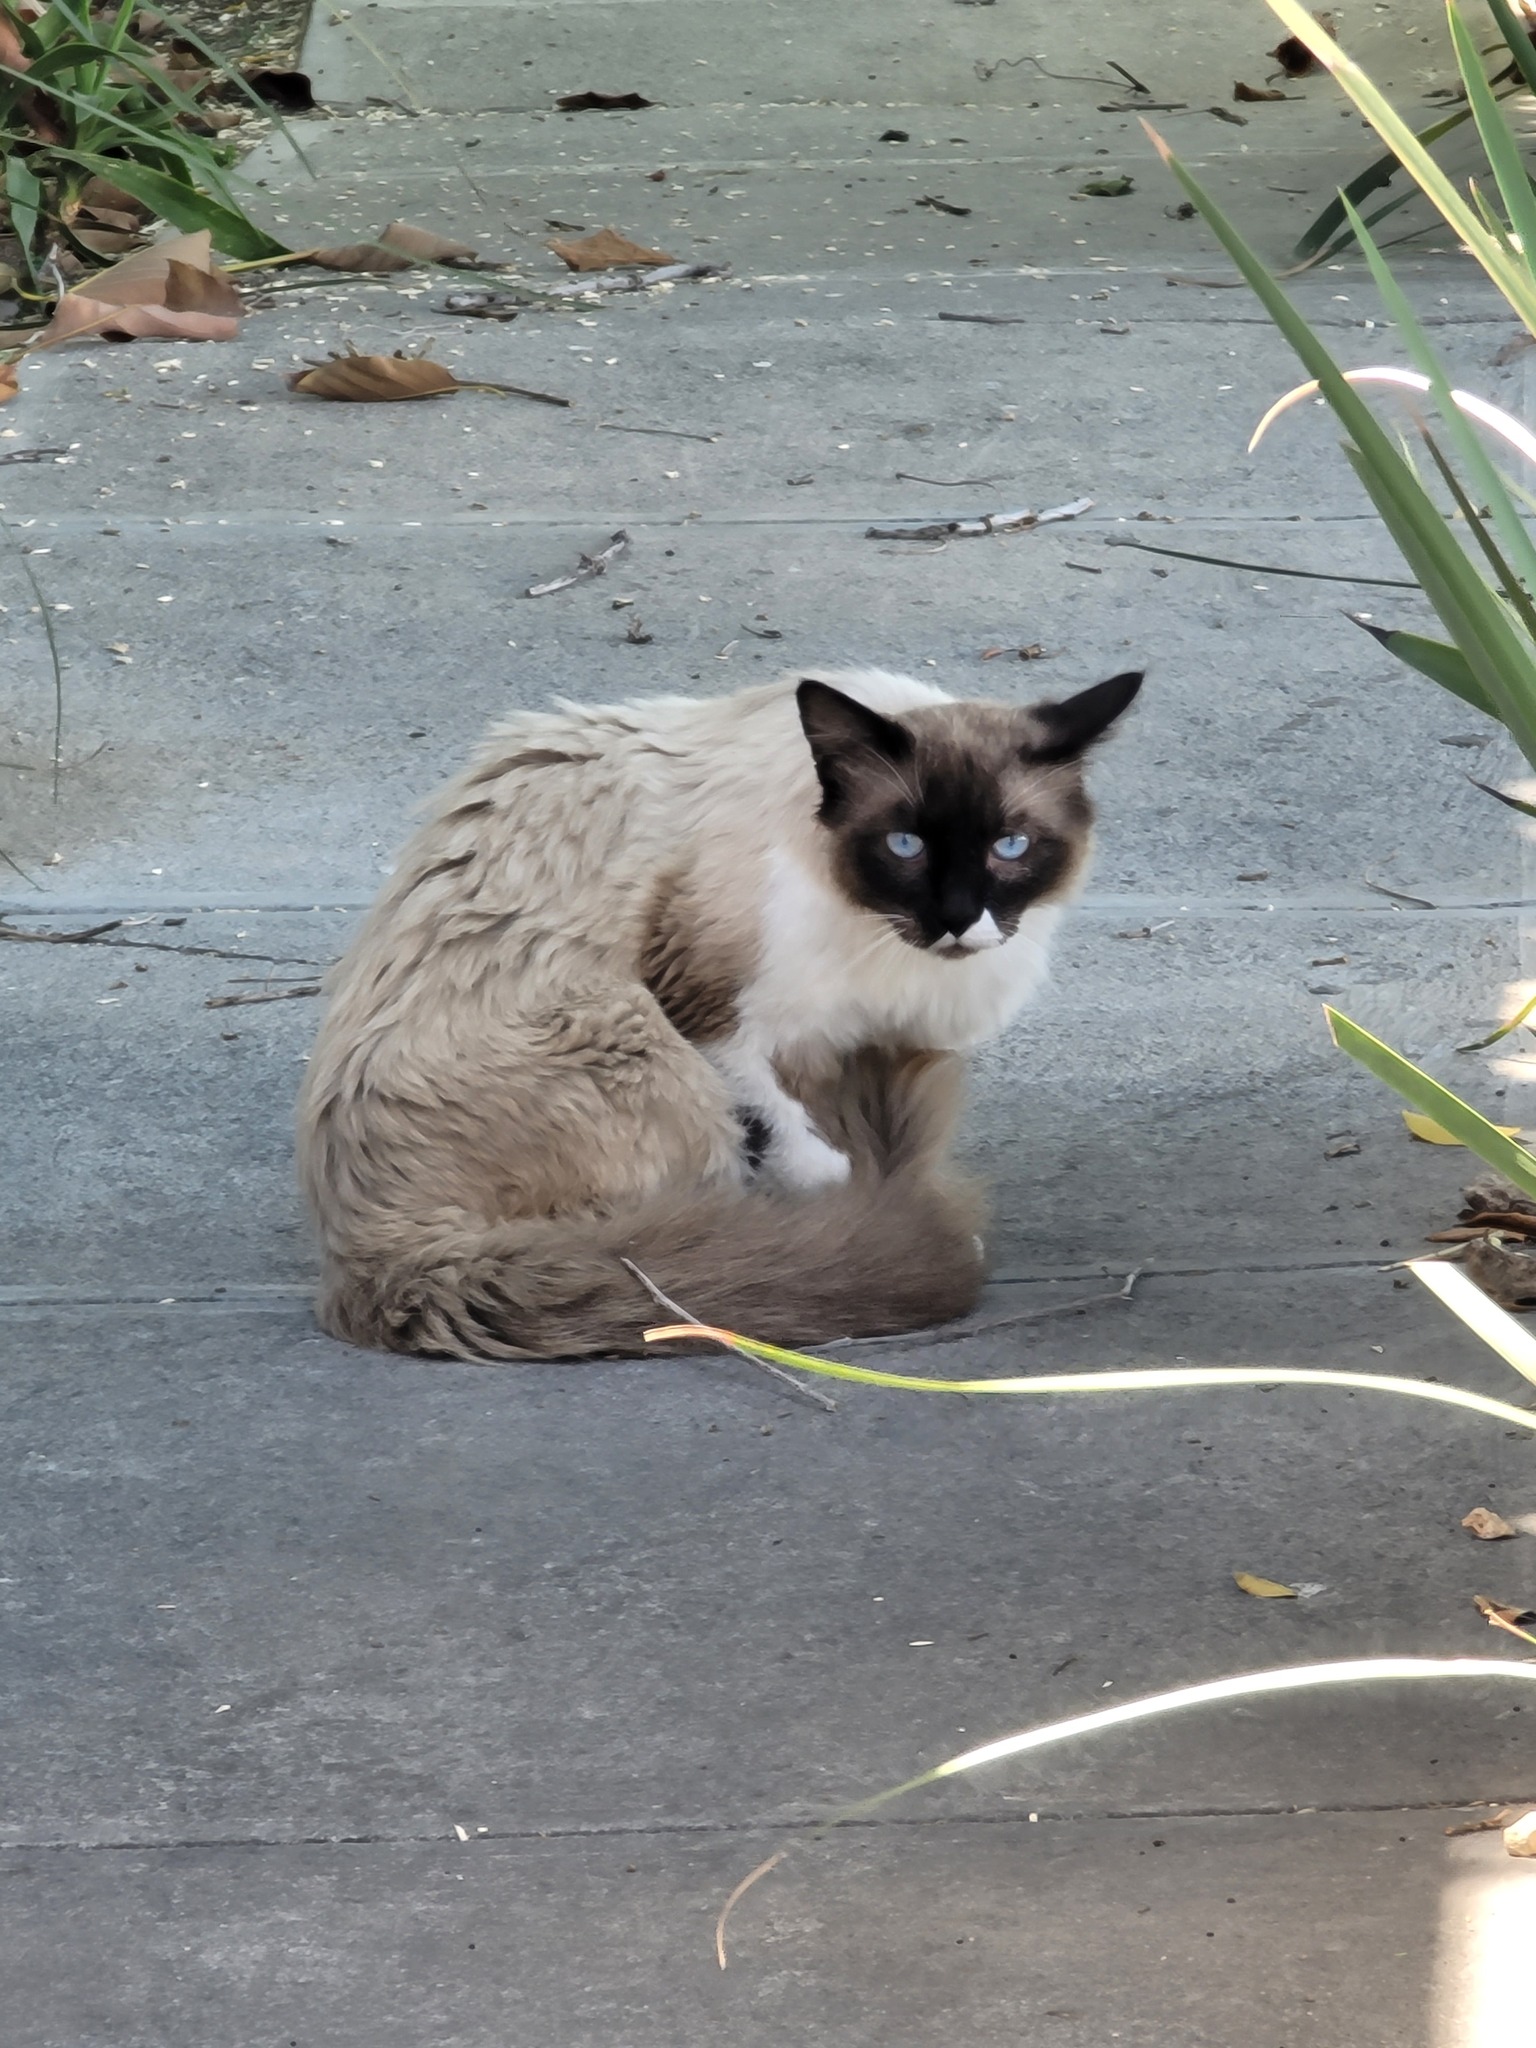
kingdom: Animalia
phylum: Chordata
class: Mammalia
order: Carnivora
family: Felidae
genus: Felis
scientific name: Felis catus
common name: Domestic cat
